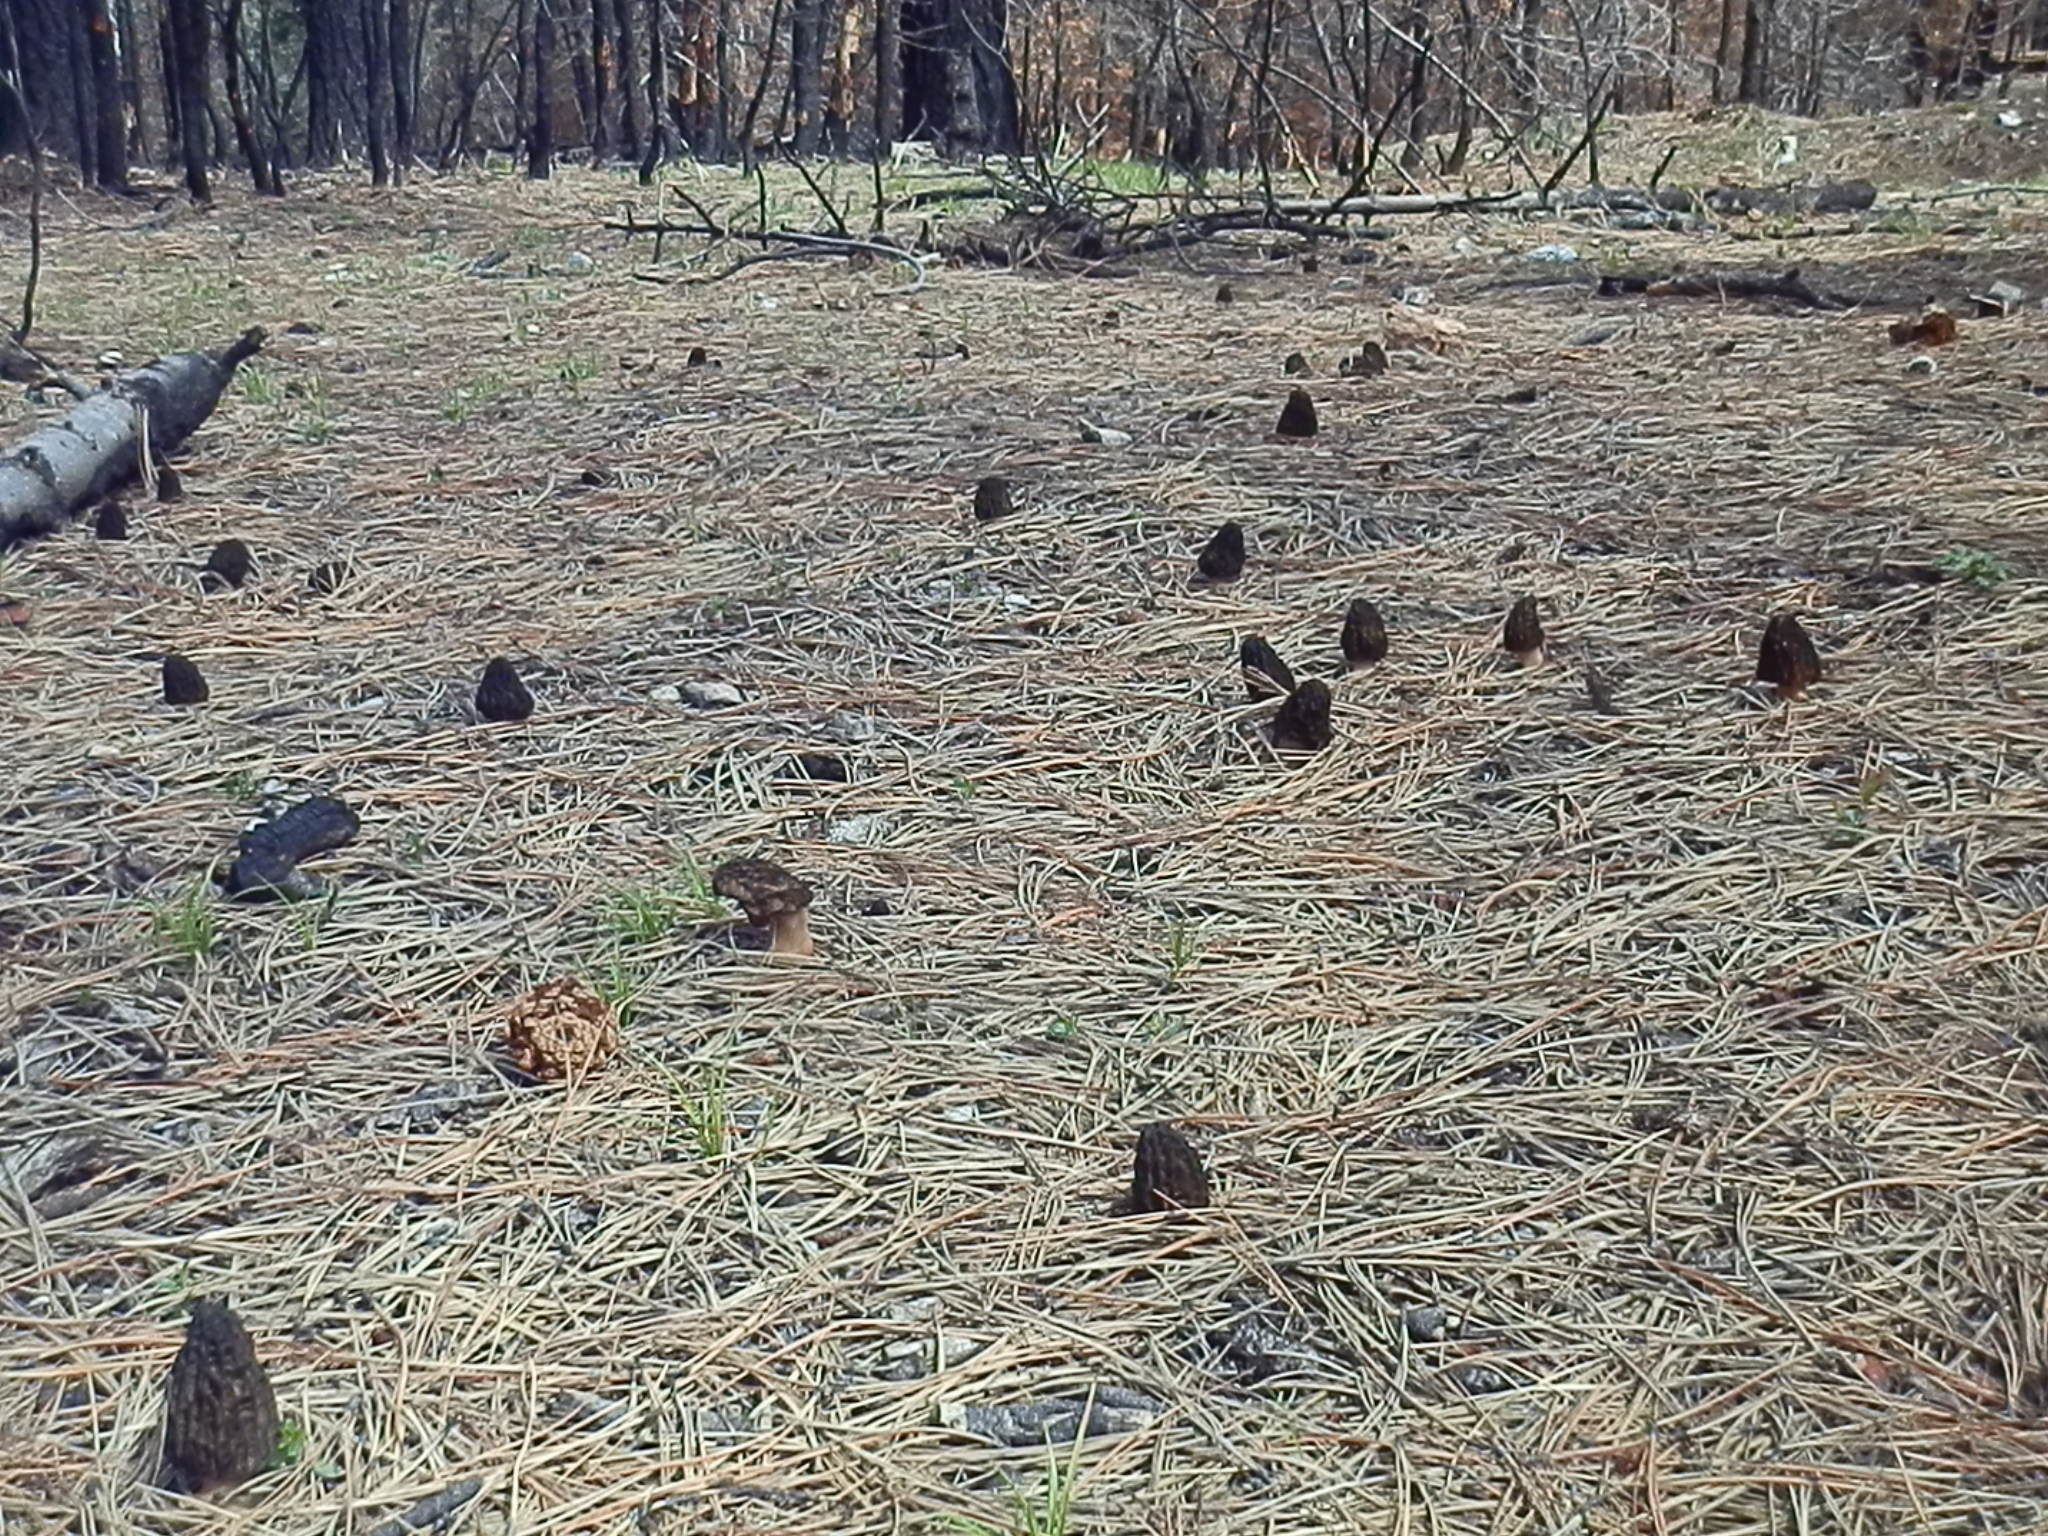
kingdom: Fungi
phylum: Ascomycota
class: Pezizomycetes
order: Pezizales
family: Morchellaceae
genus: Morchella
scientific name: Morchella eximia
